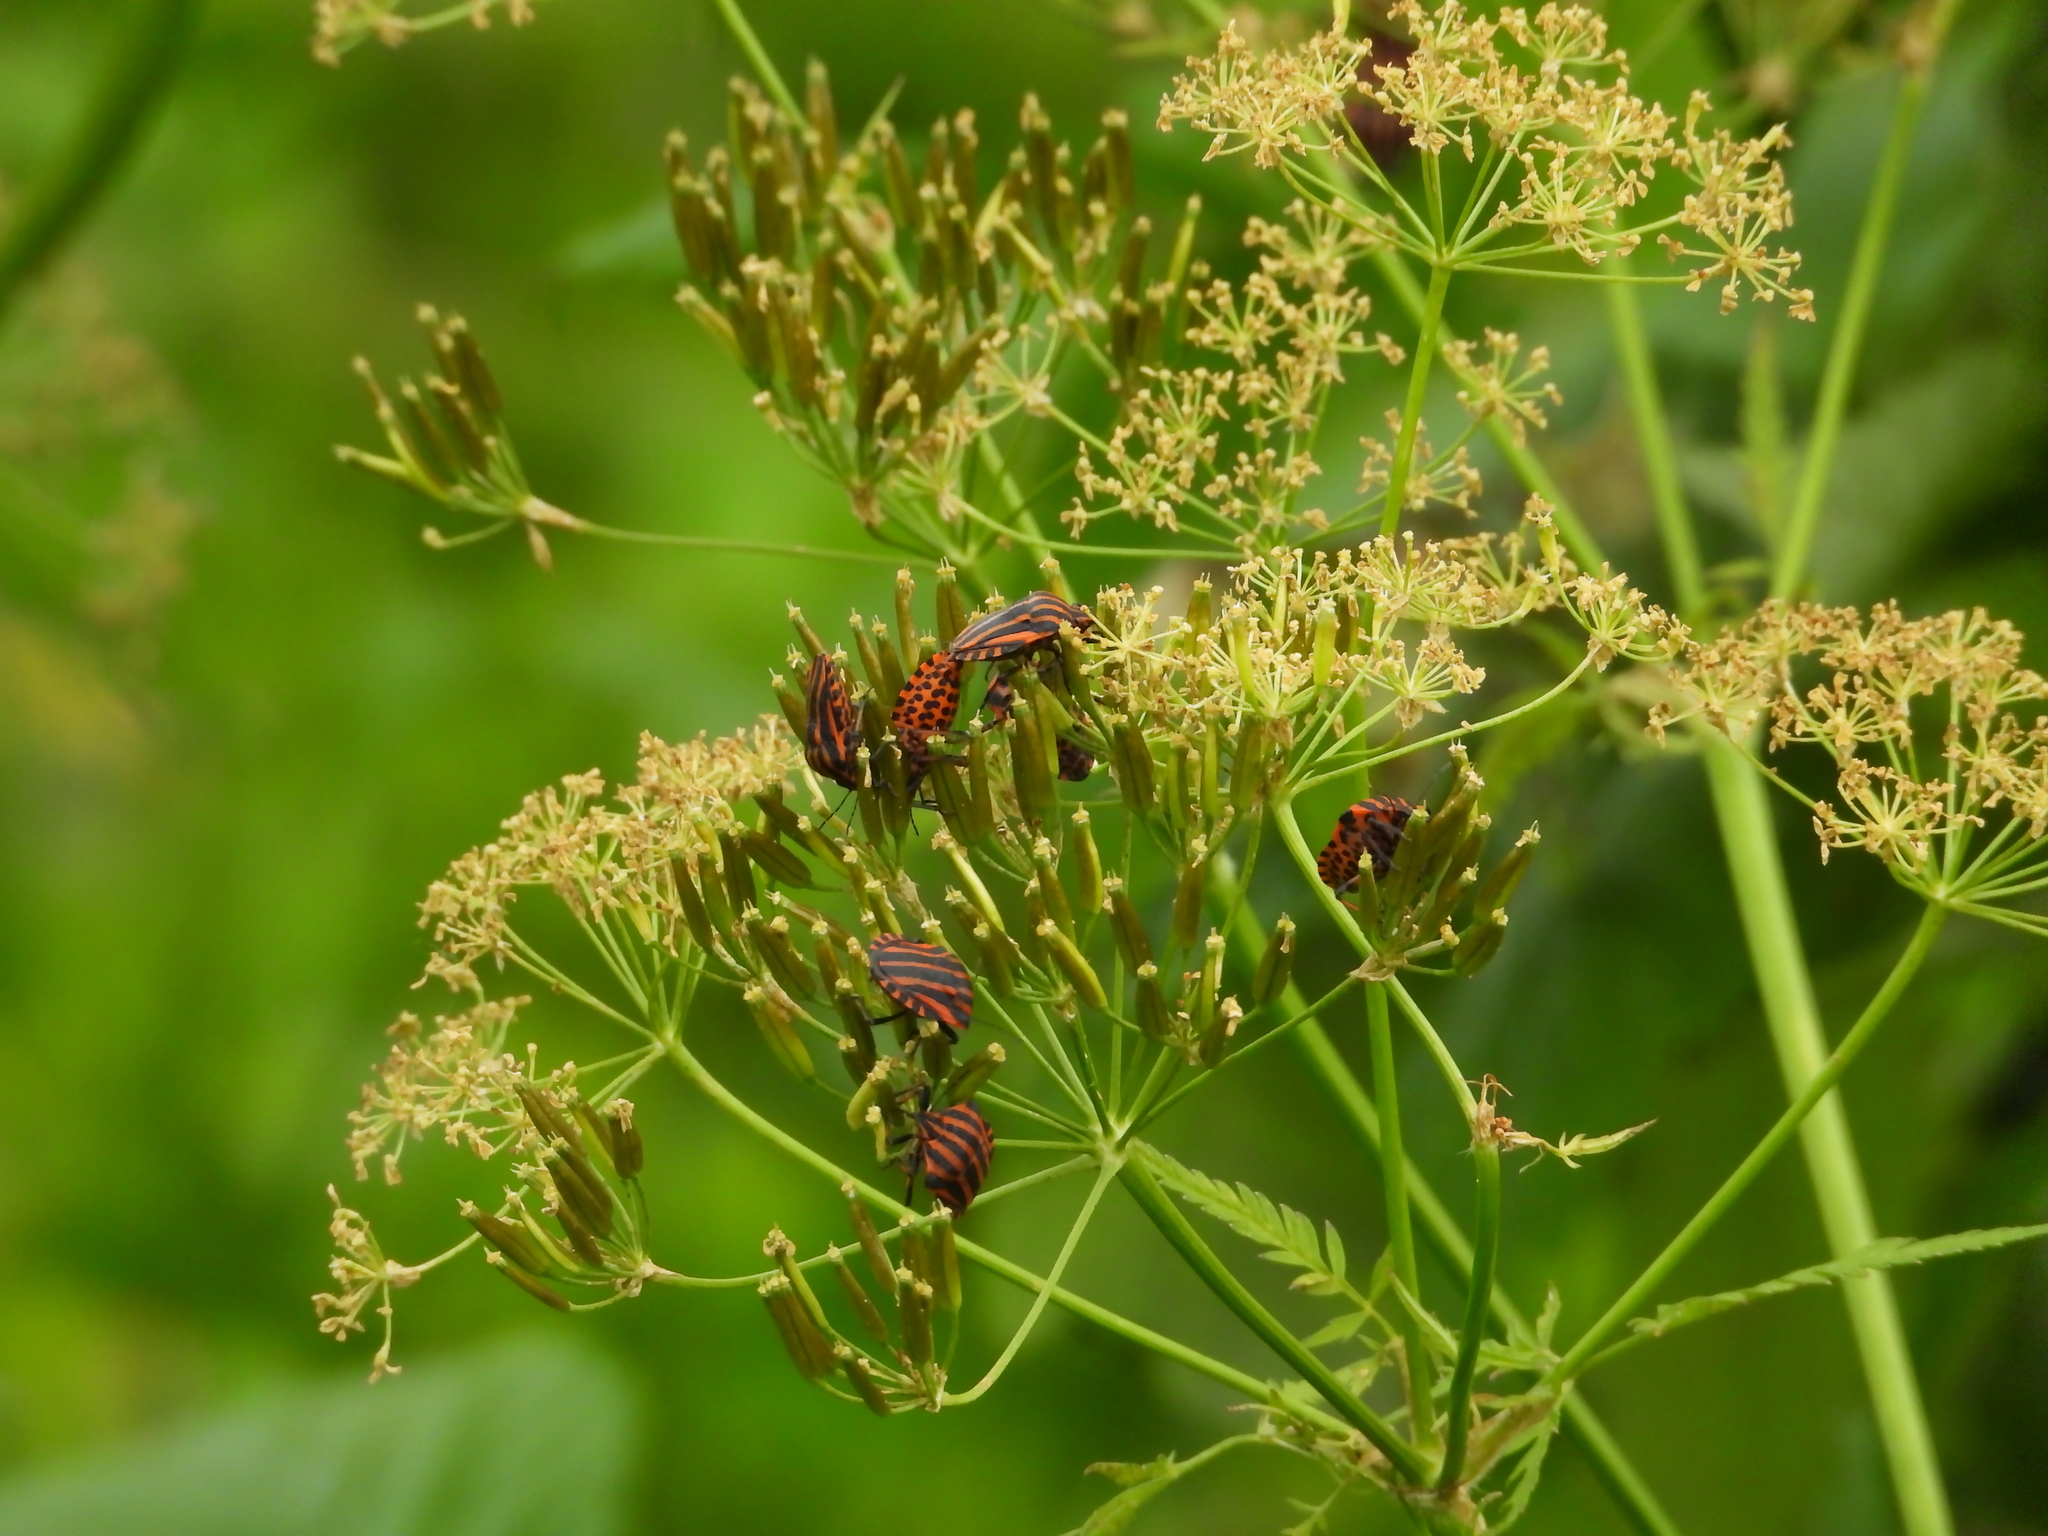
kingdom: Animalia
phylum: Arthropoda
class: Insecta
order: Hemiptera
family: Pentatomidae
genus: Graphosoma
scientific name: Graphosoma italicum
